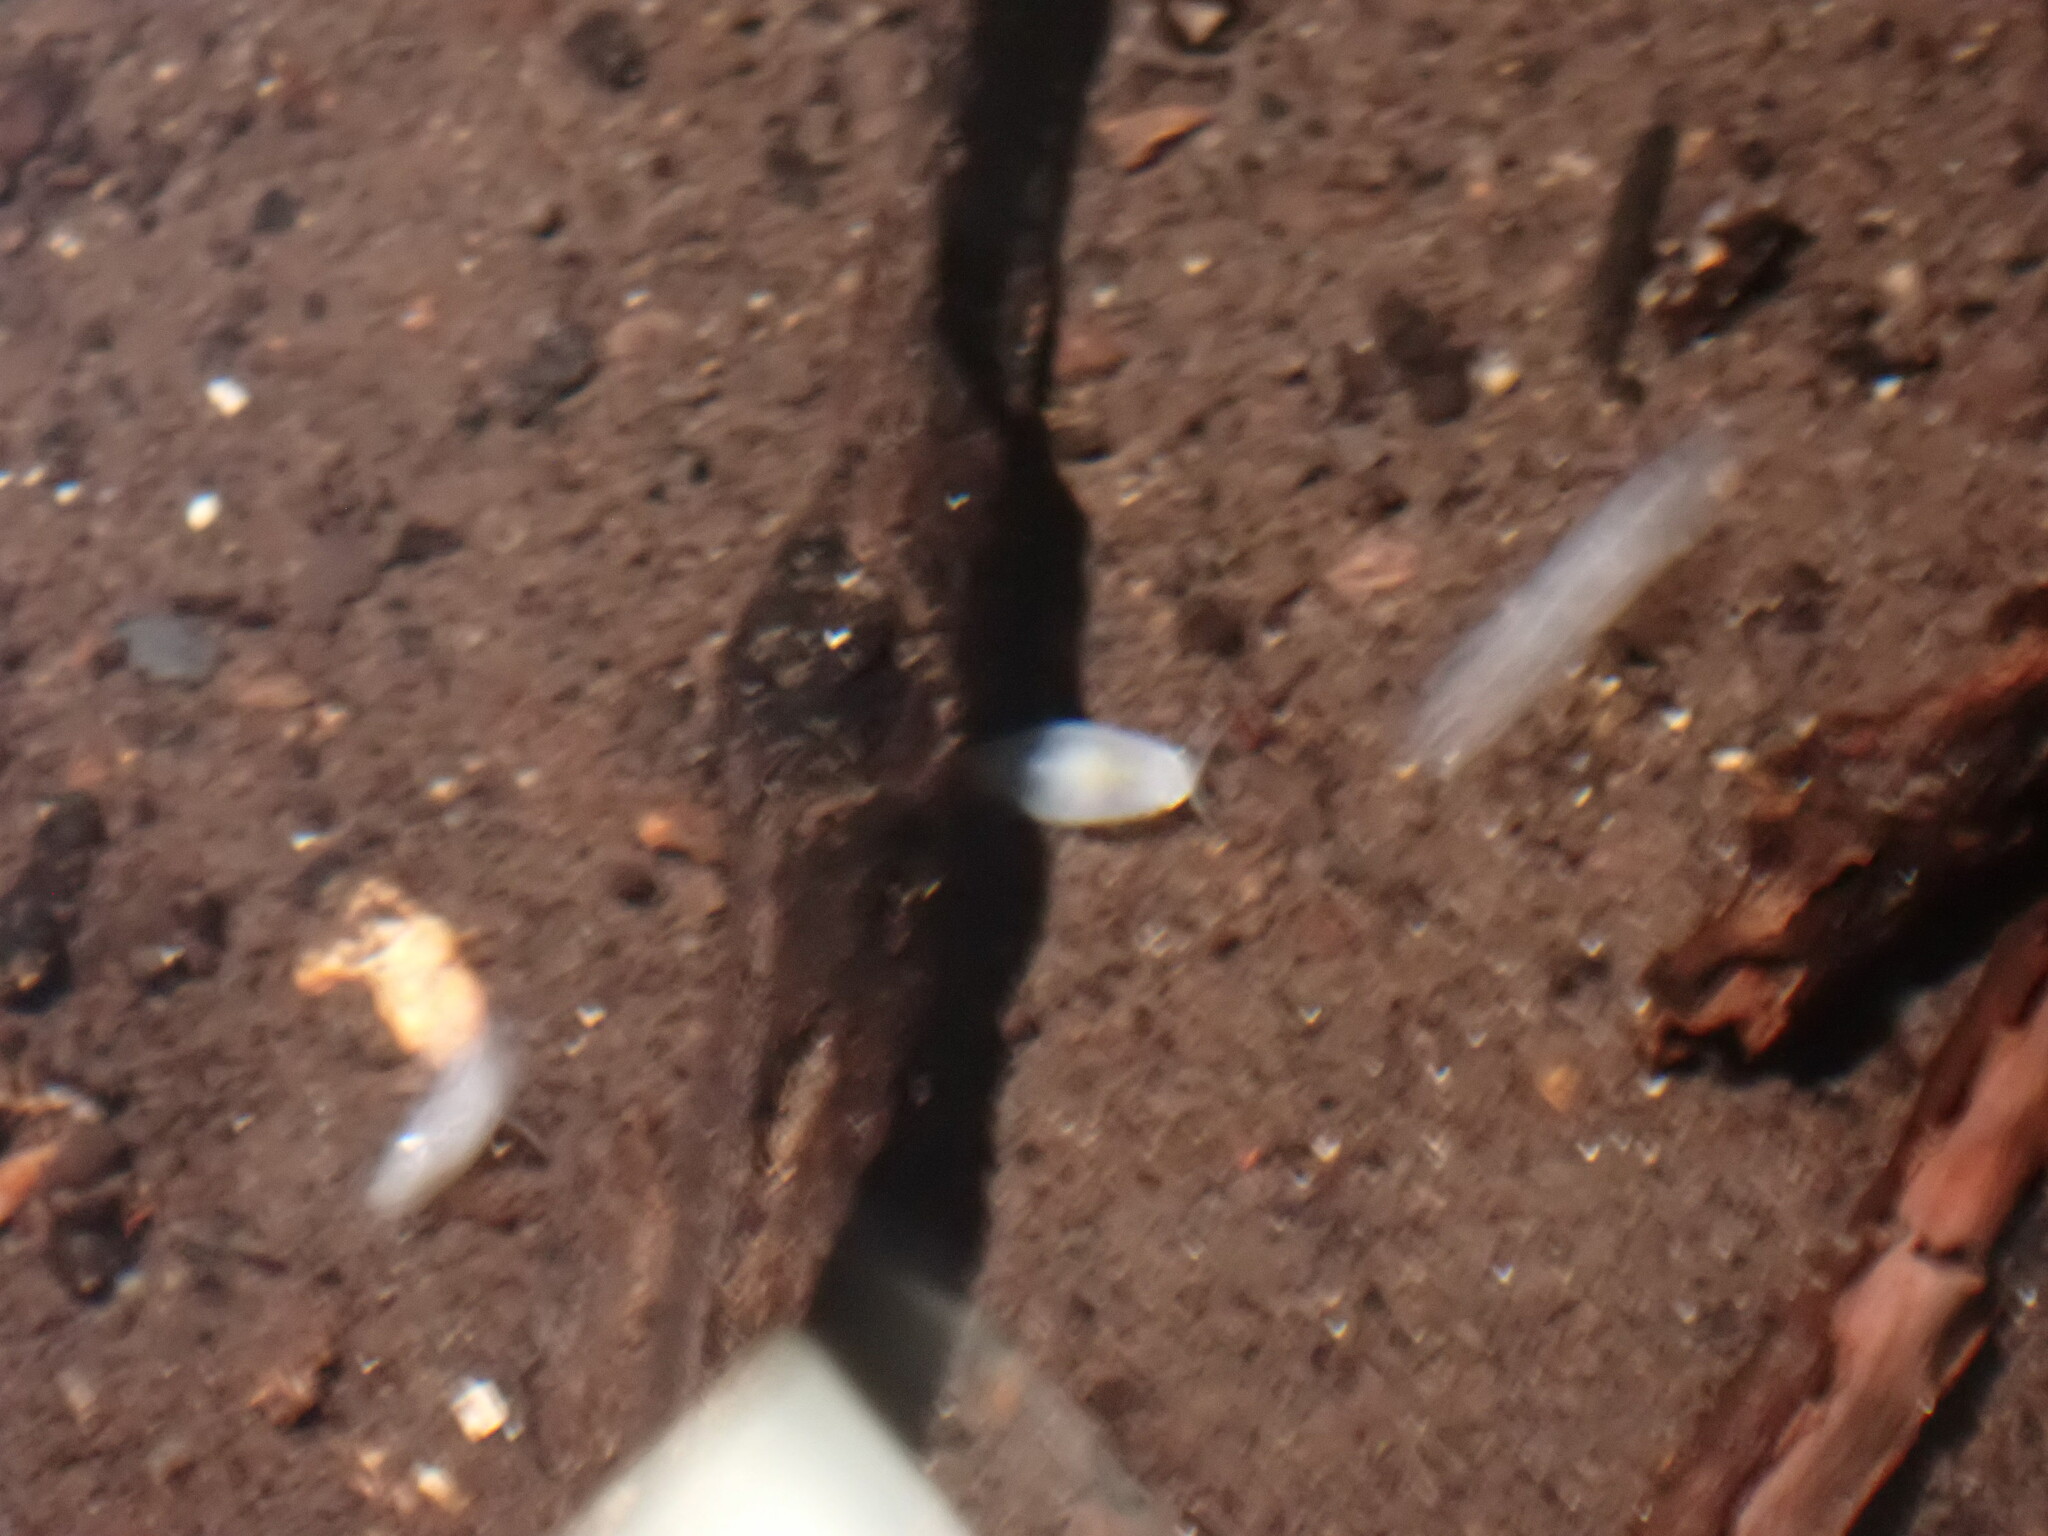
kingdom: Animalia
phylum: Arthropoda
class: Malacostraca
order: Isopoda
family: Cirolanidae
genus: Cirolana
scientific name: Cirolana crenata
